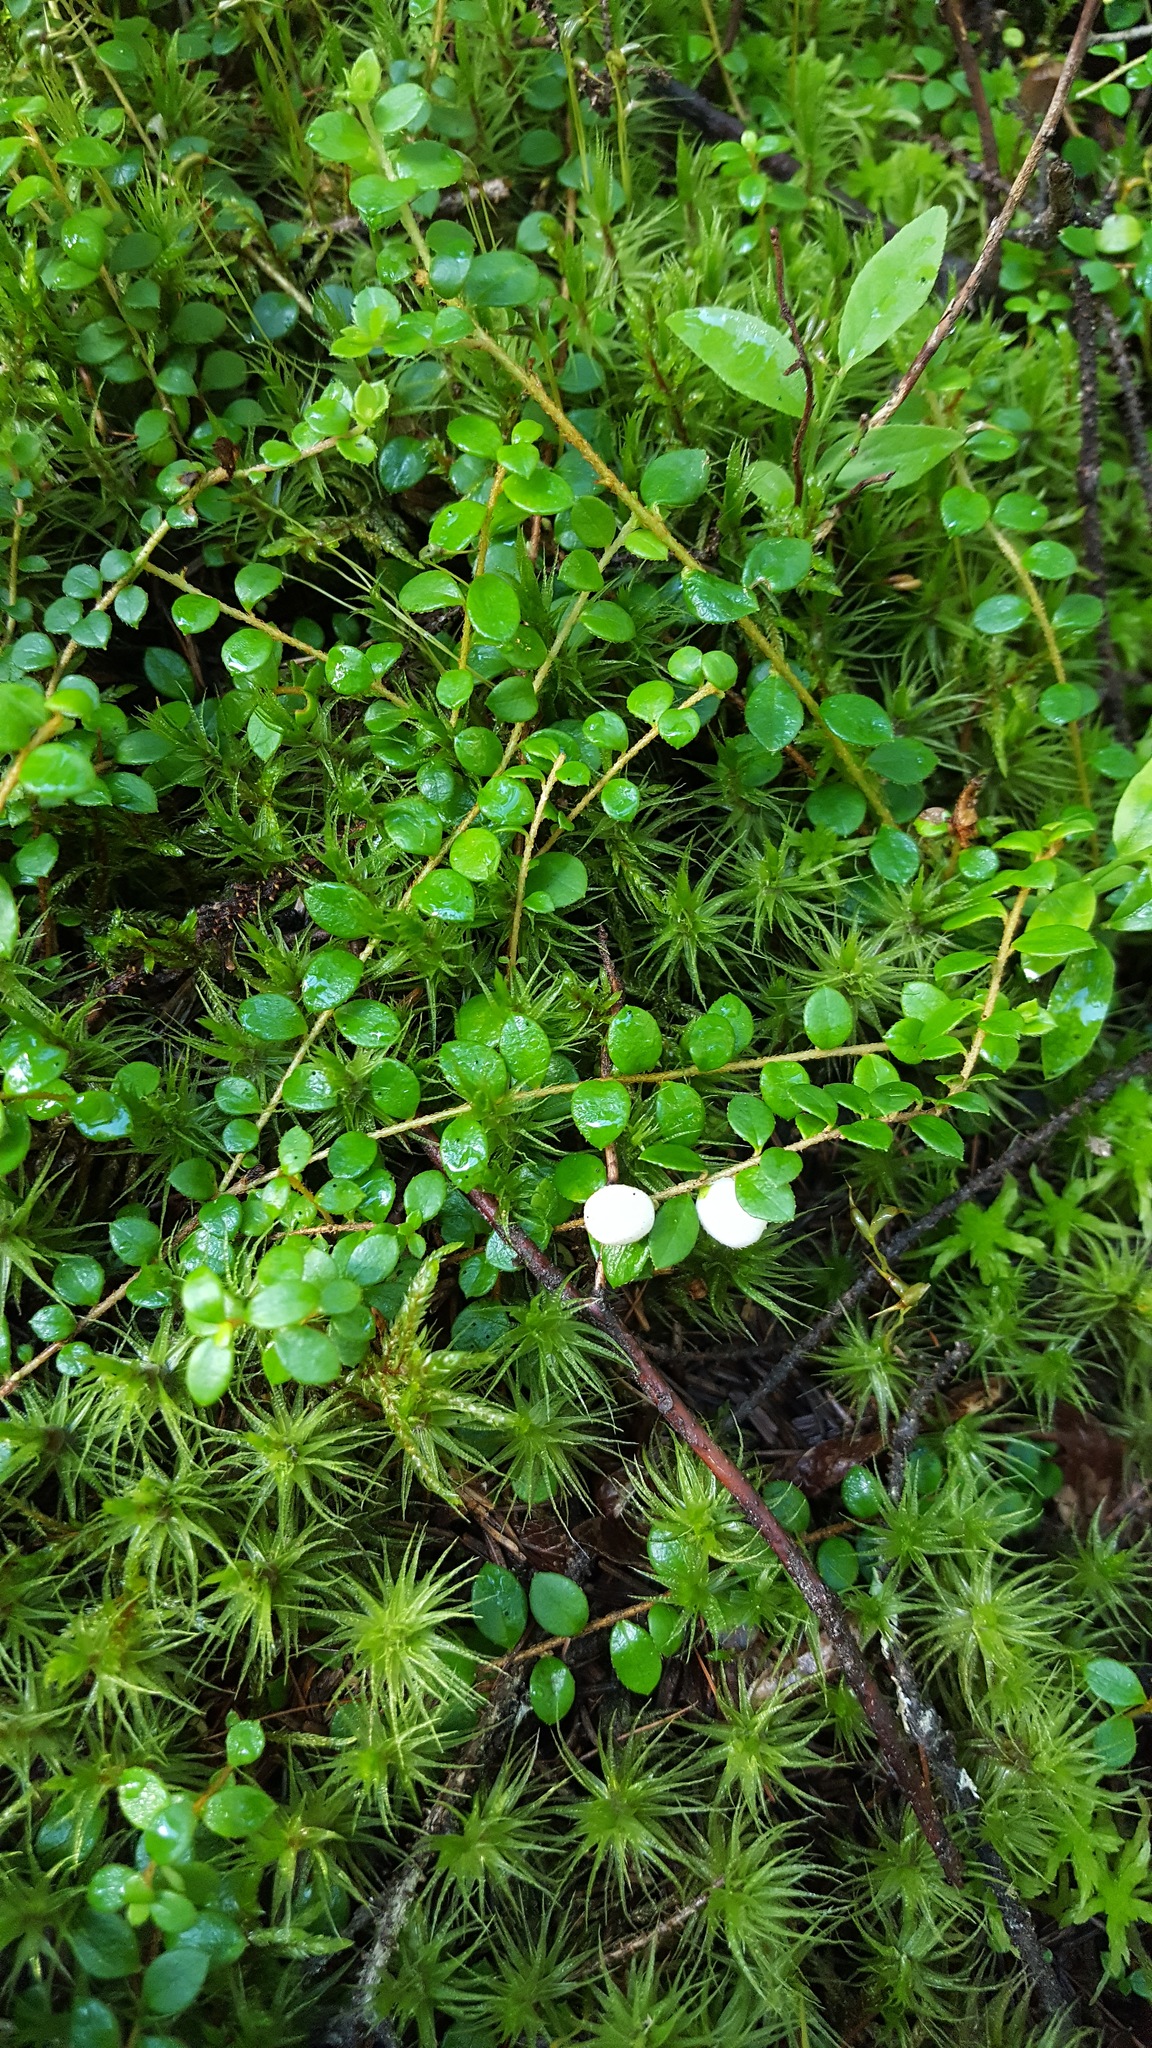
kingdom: Plantae
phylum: Tracheophyta
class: Magnoliopsida
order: Ericales
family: Ericaceae
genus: Gaultheria
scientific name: Gaultheria hispidula
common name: Cancer wintergreen
